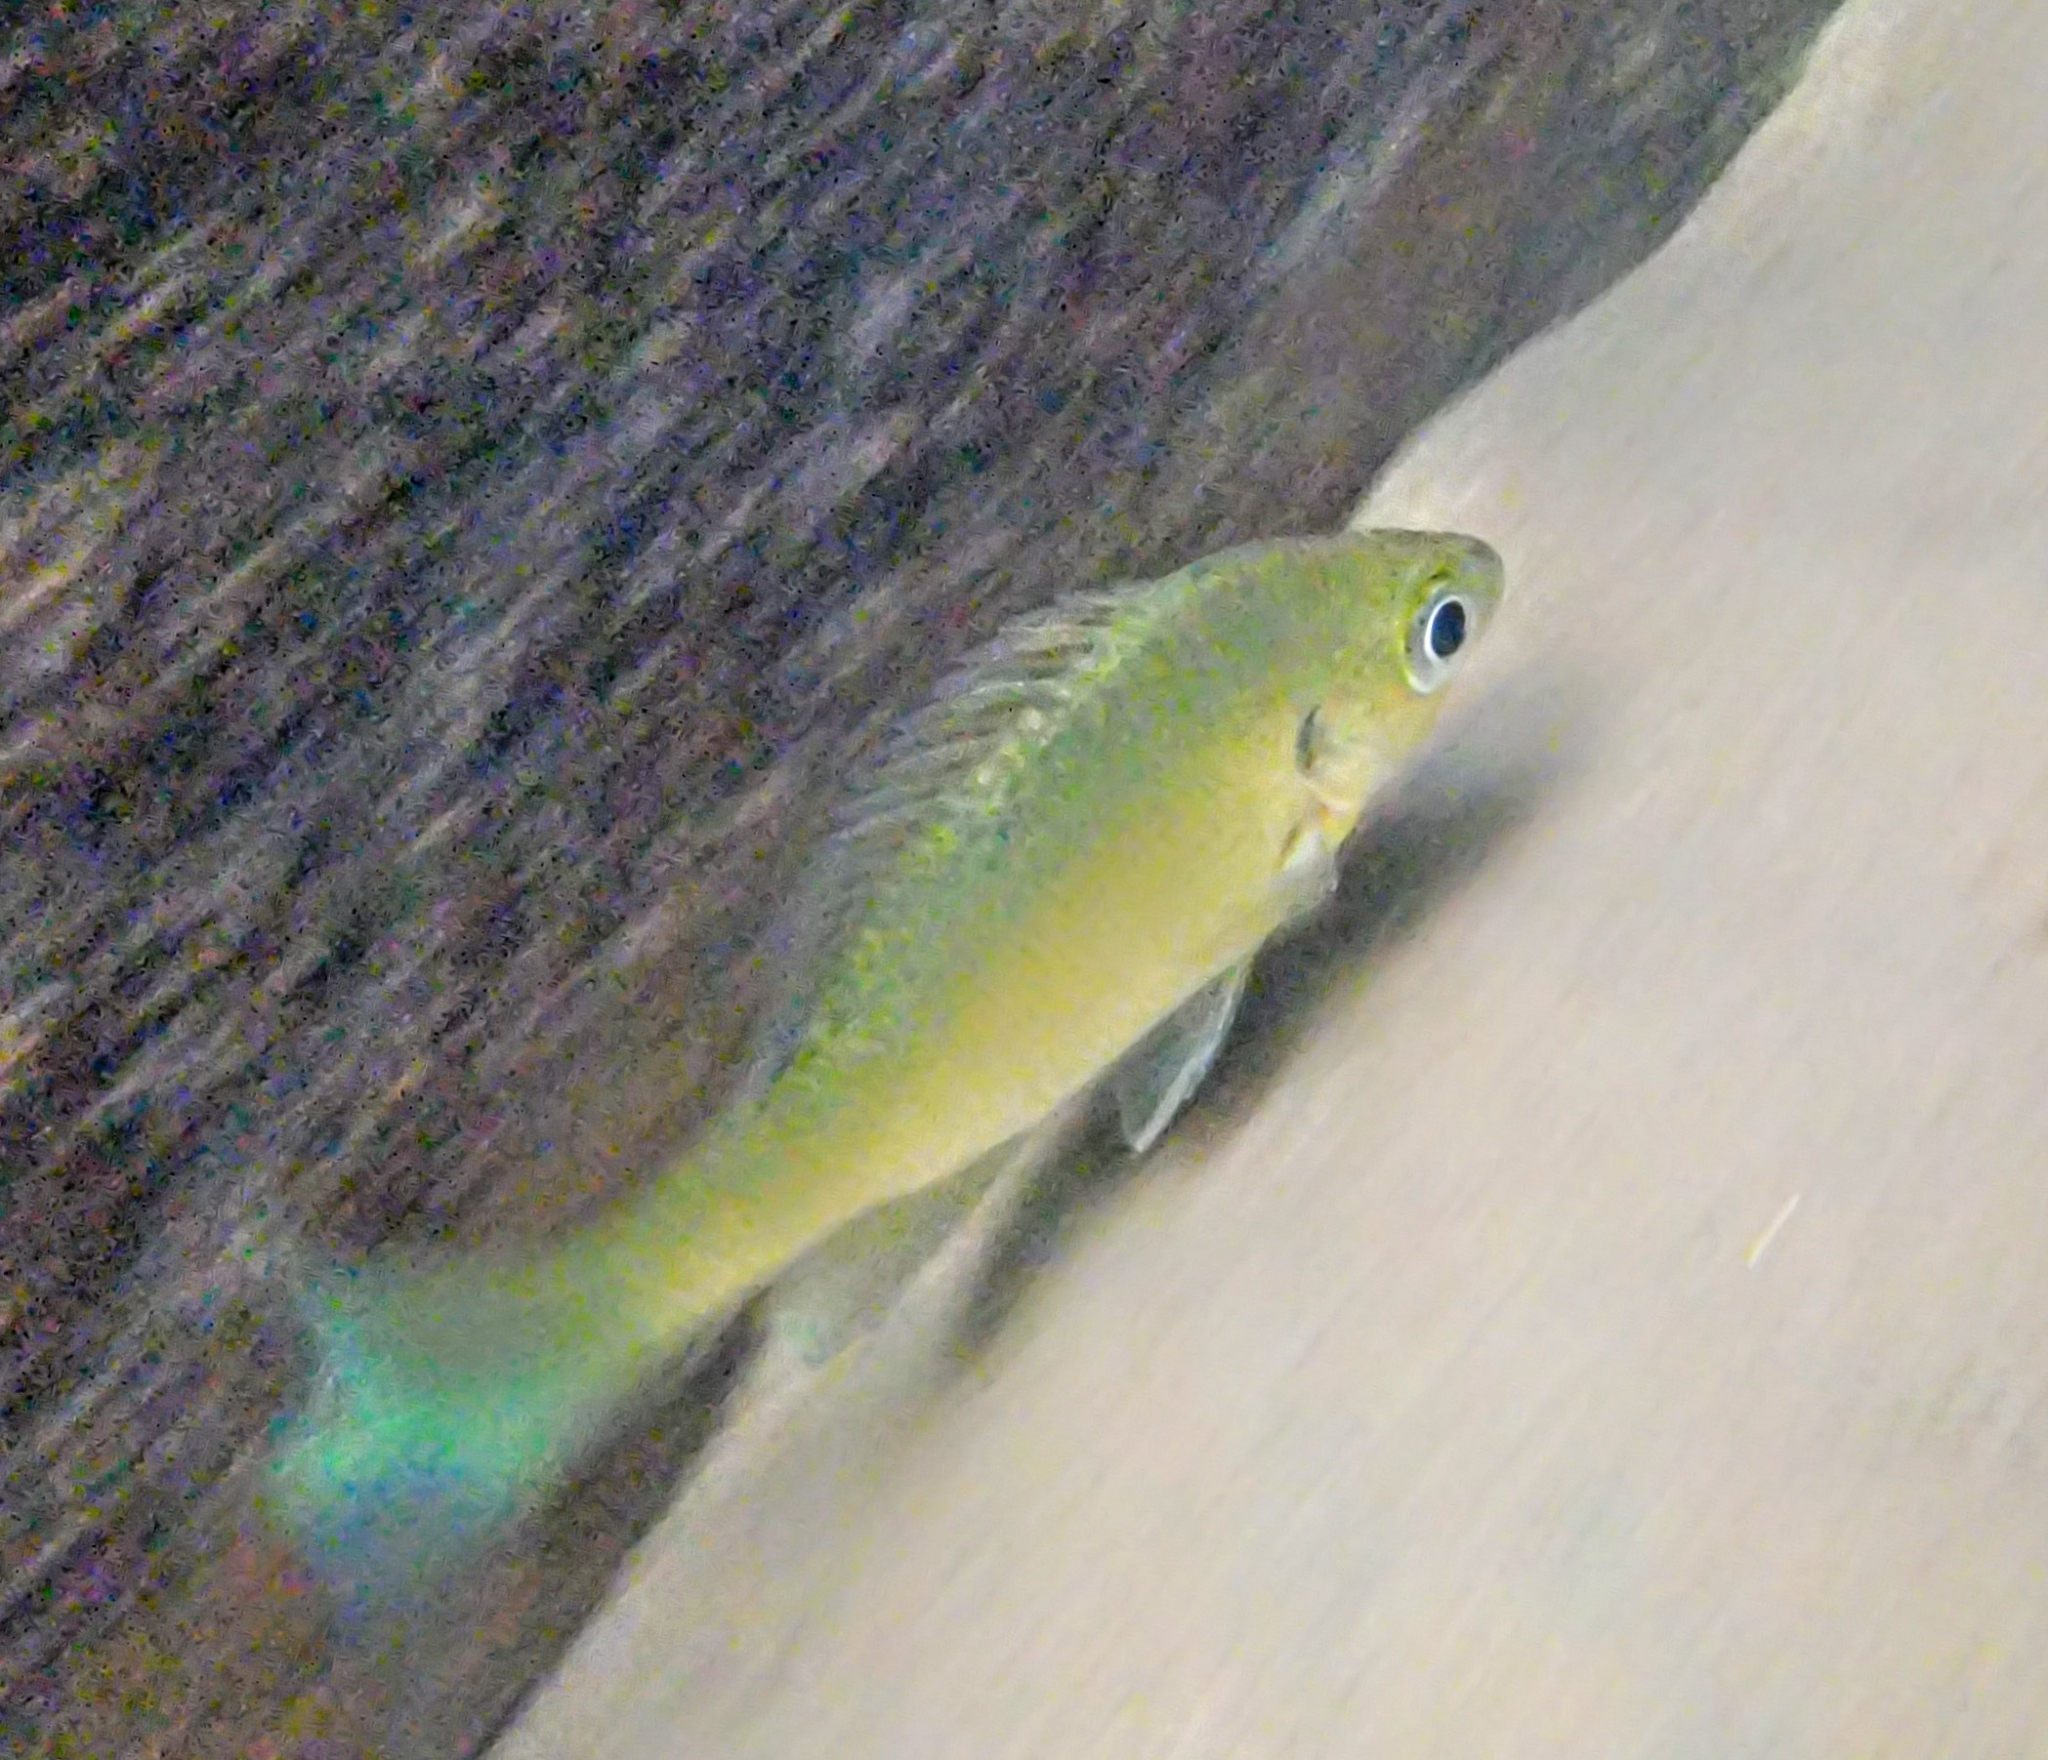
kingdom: Animalia
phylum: Chordata
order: Perciformes
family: Centrarchidae
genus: Lepomis
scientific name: Lepomis macrochirus
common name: Bluegill
